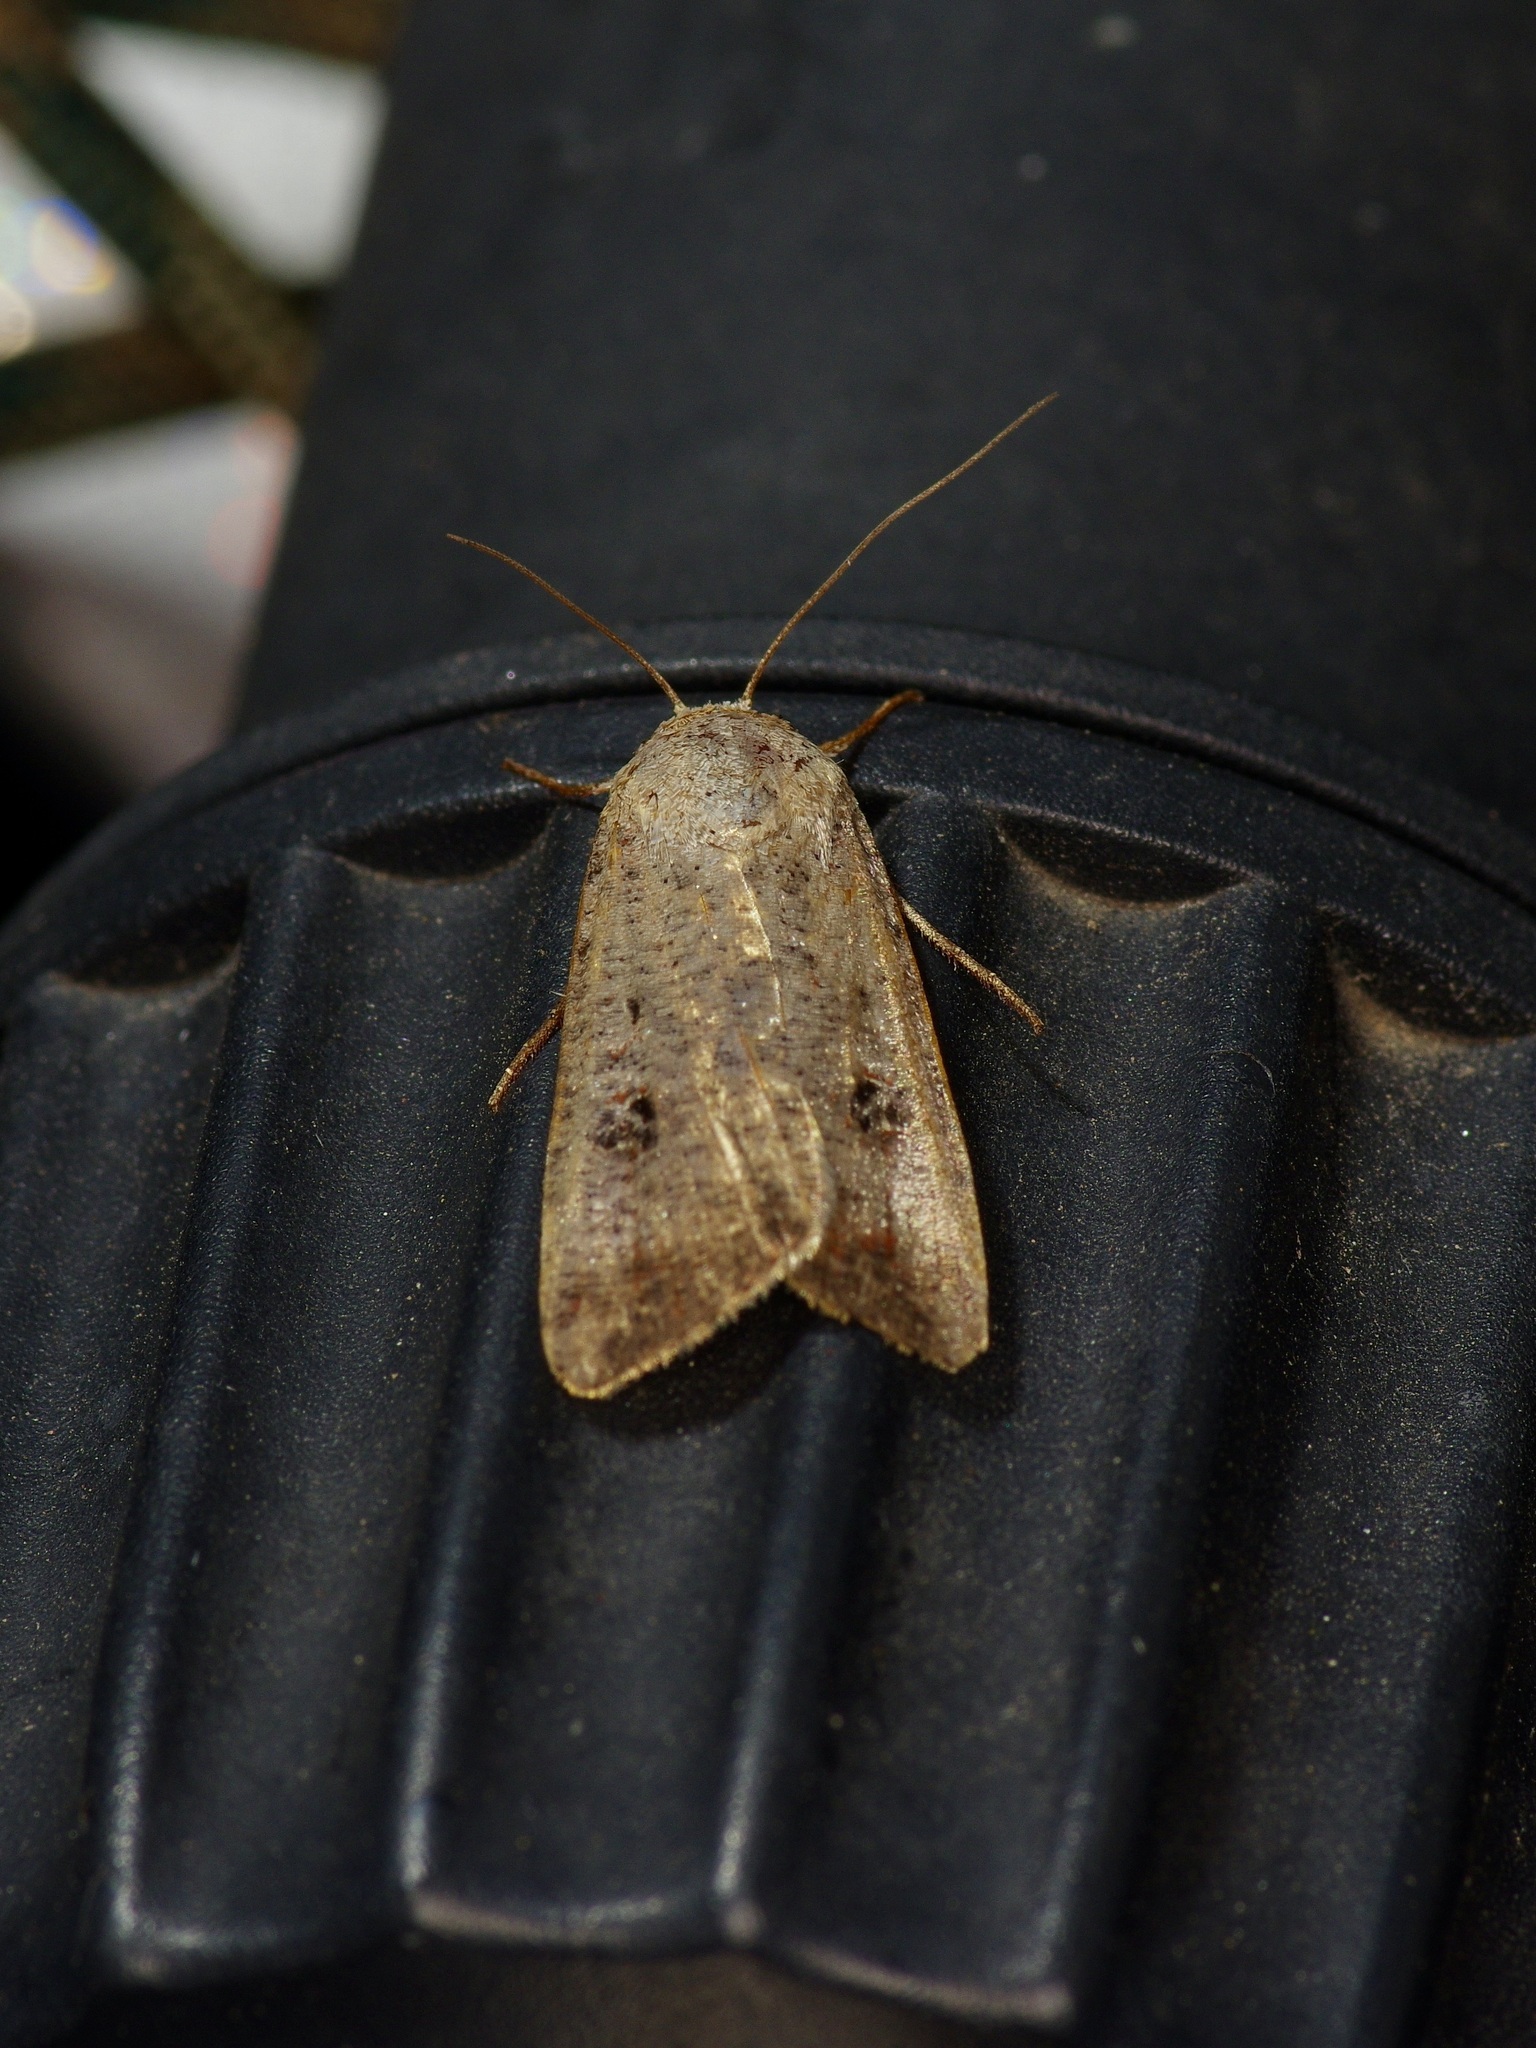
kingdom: Animalia
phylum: Arthropoda
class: Insecta
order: Lepidoptera
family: Noctuidae
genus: Anicla
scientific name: Anicla infecta
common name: Green cutworm
